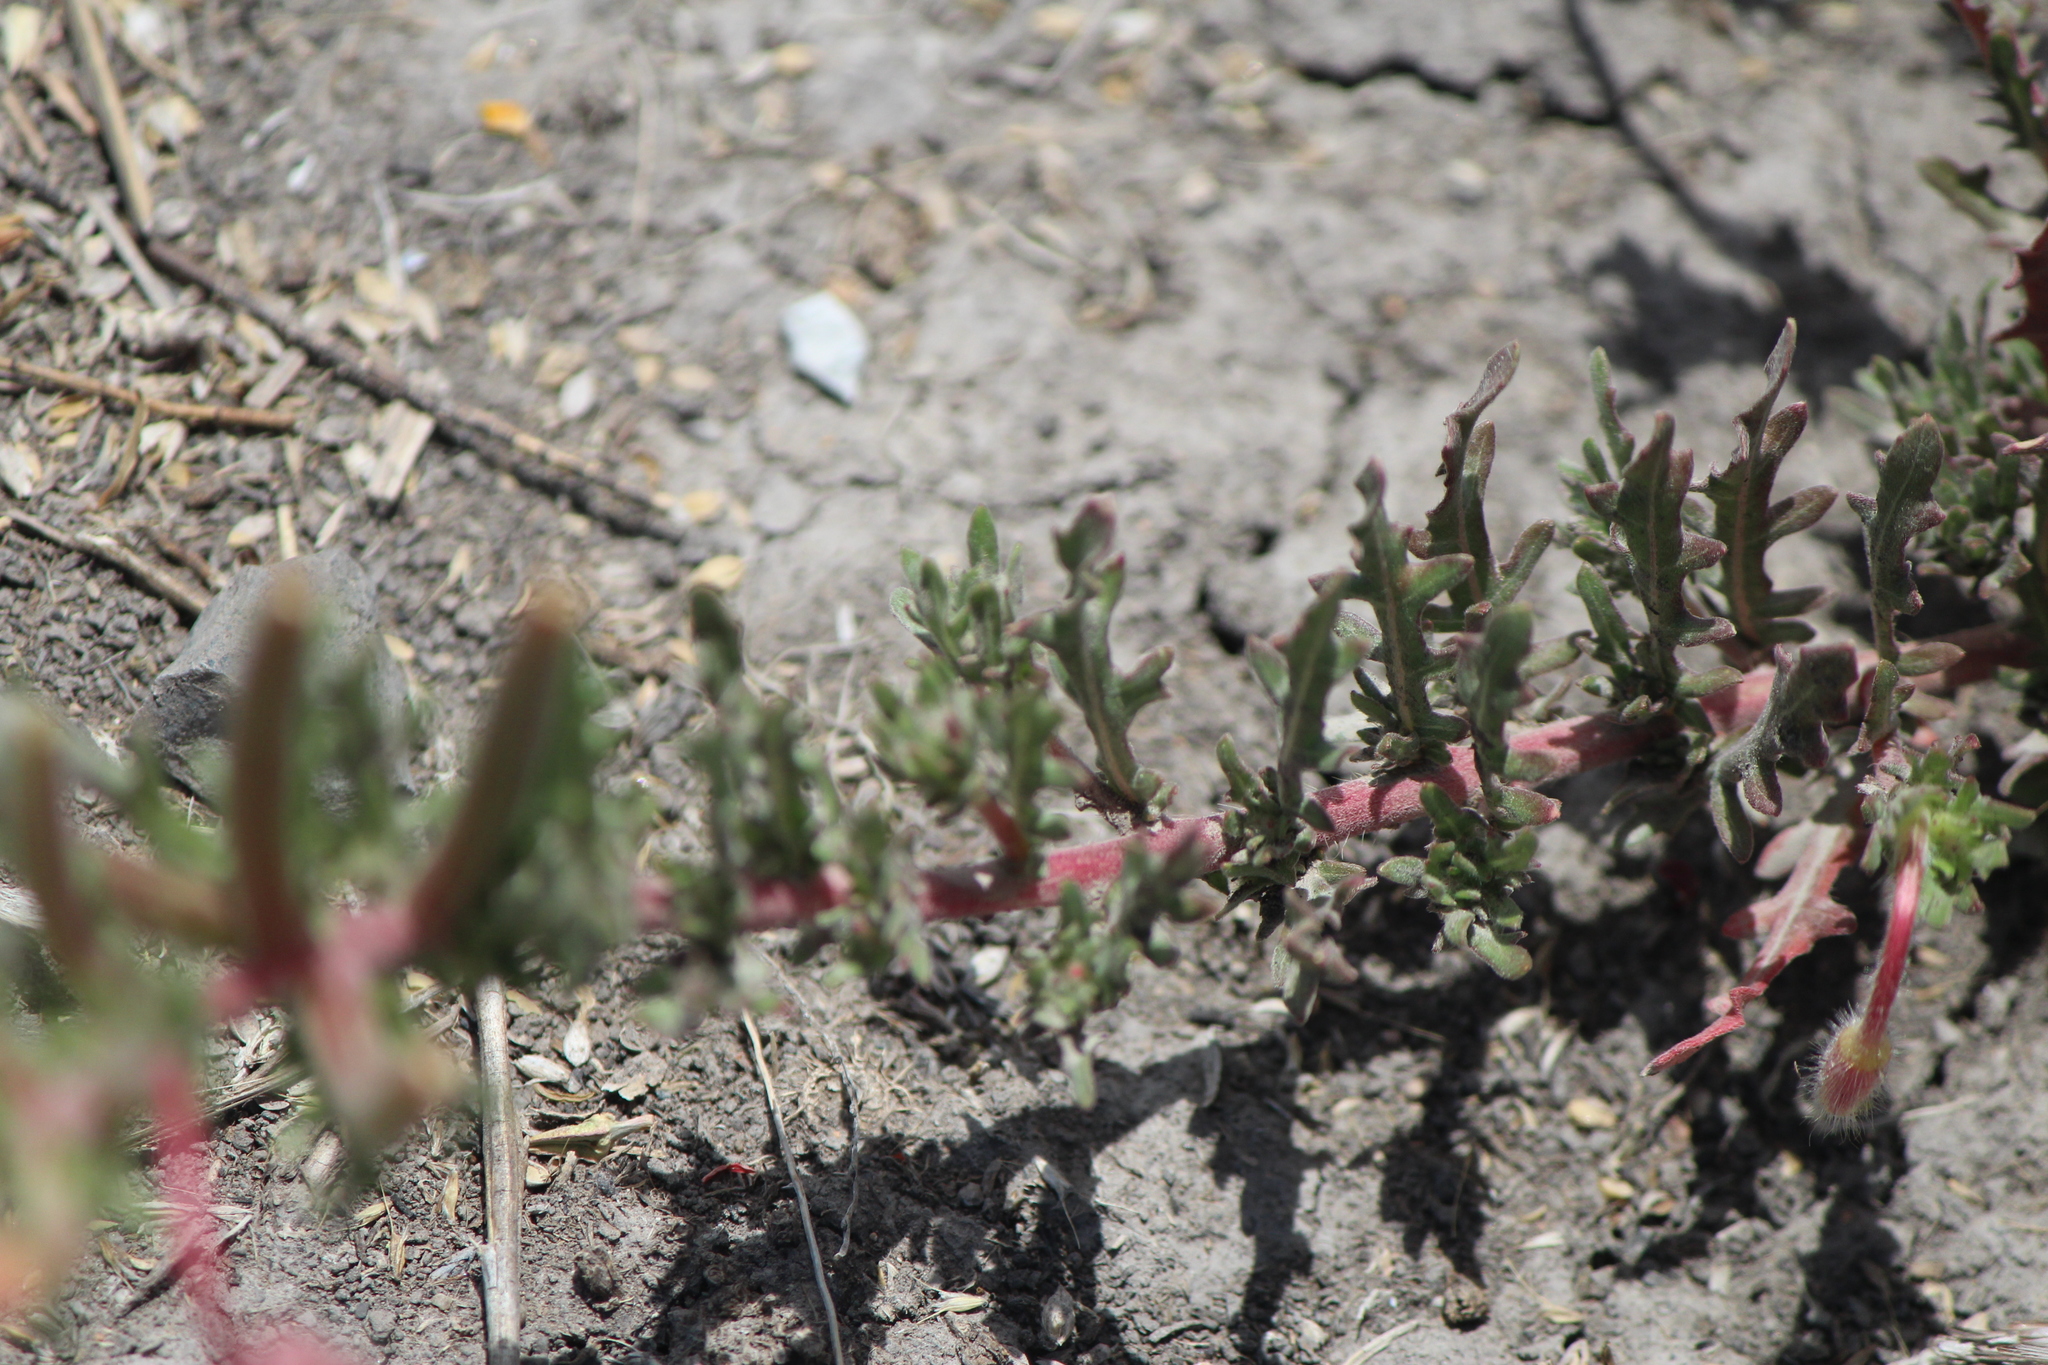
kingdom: Plantae
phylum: Tracheophyta
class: Magnoliopsida
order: Myrtales
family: Onagraceae
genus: Oenothera
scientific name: Oenothera lavandulifolia
